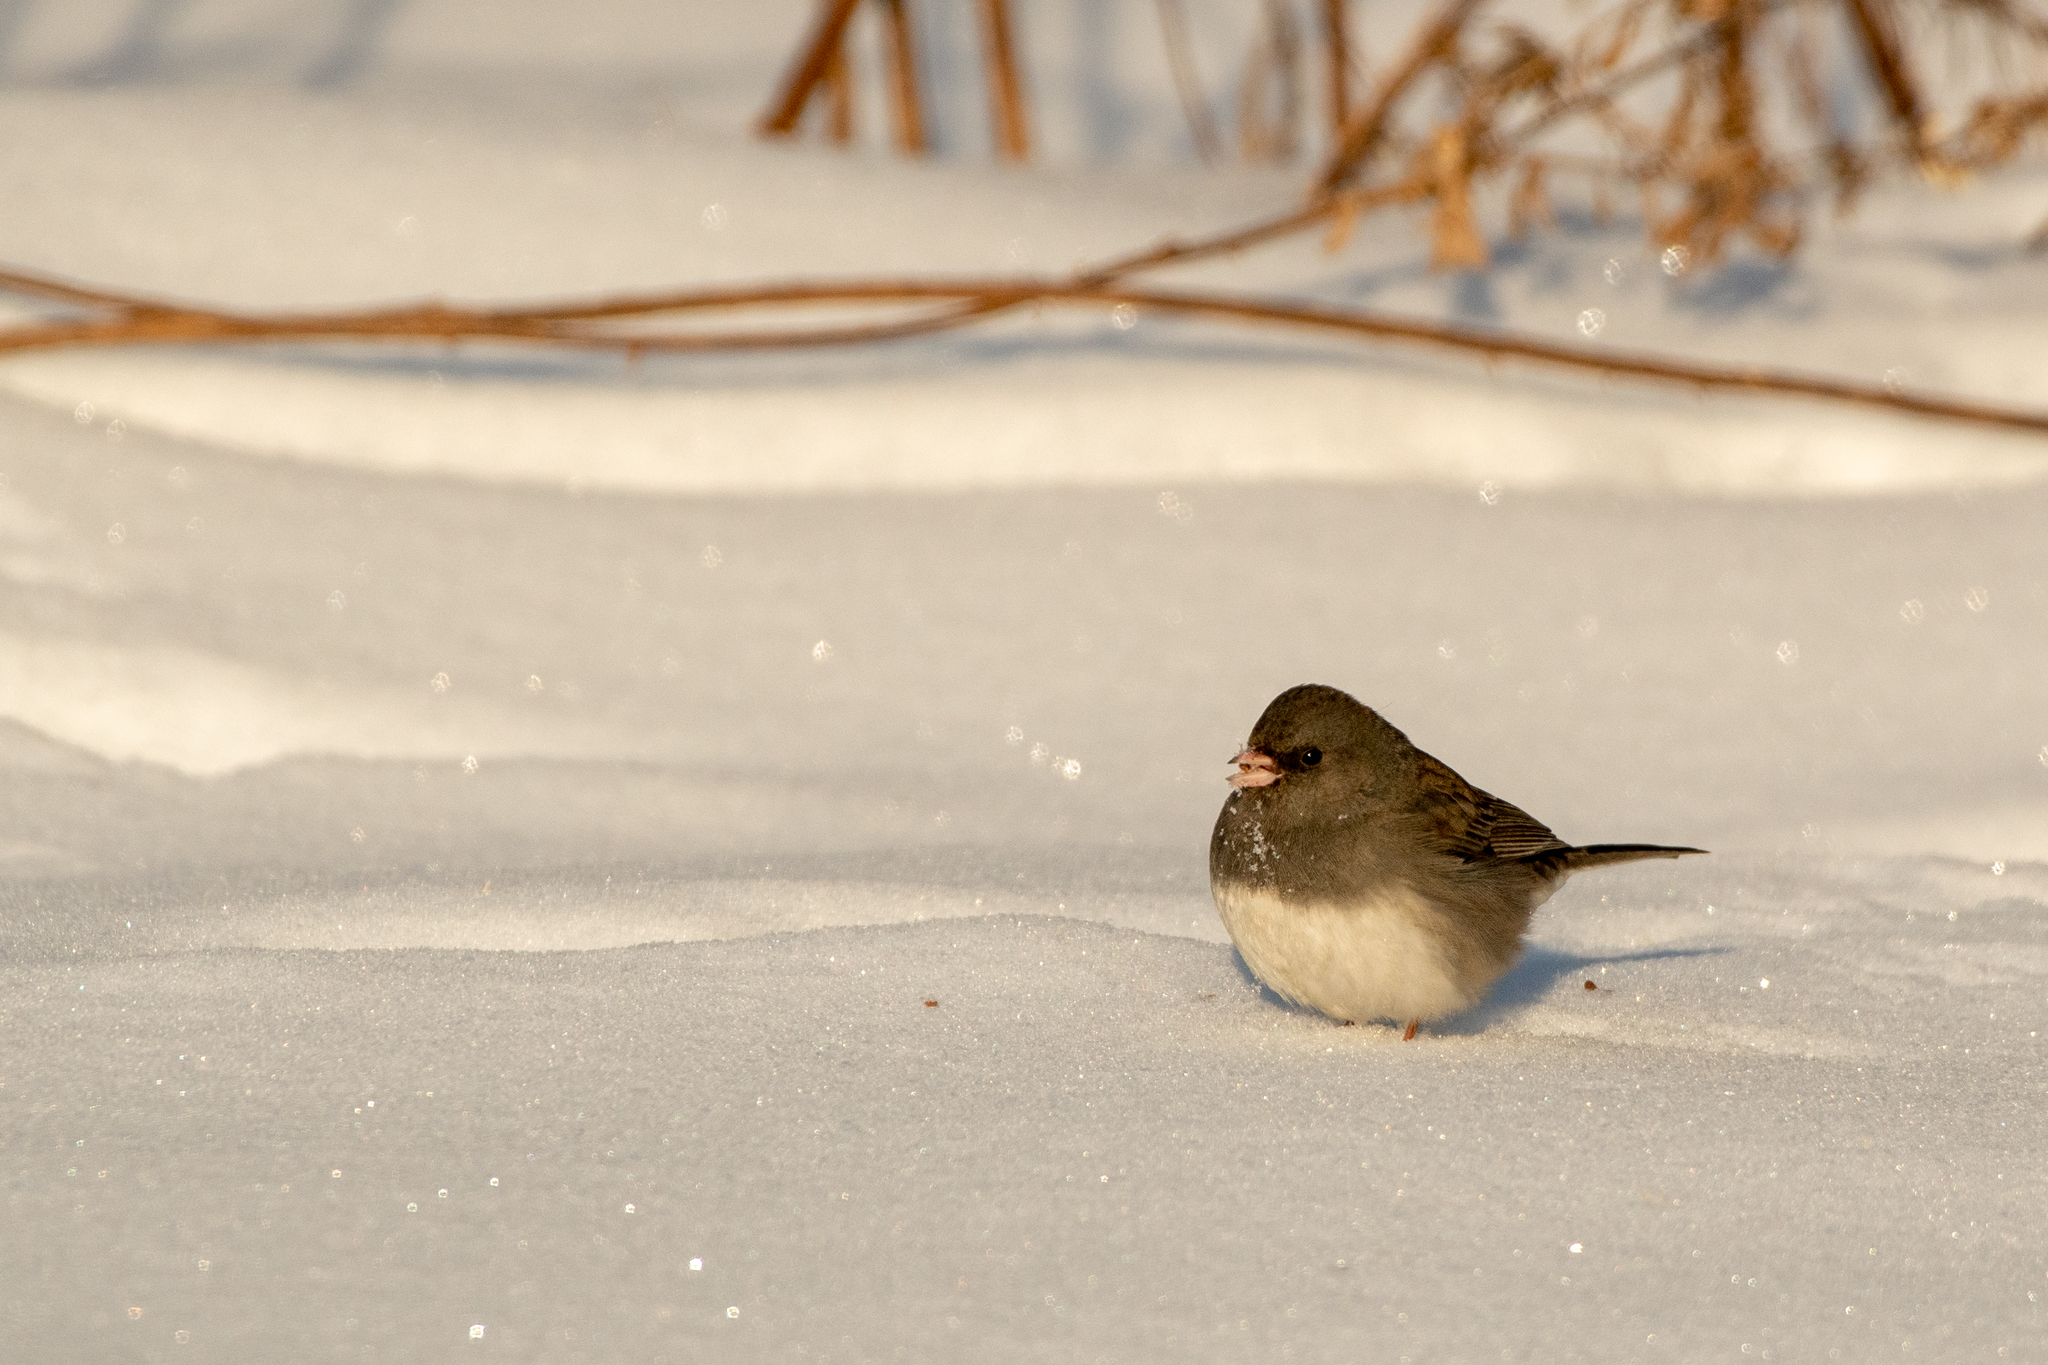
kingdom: Animalia
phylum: Chordata
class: Aves
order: Passeriformes
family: Passerellidae
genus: Junco
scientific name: Junco hyemalis
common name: Dark-eyed junco
